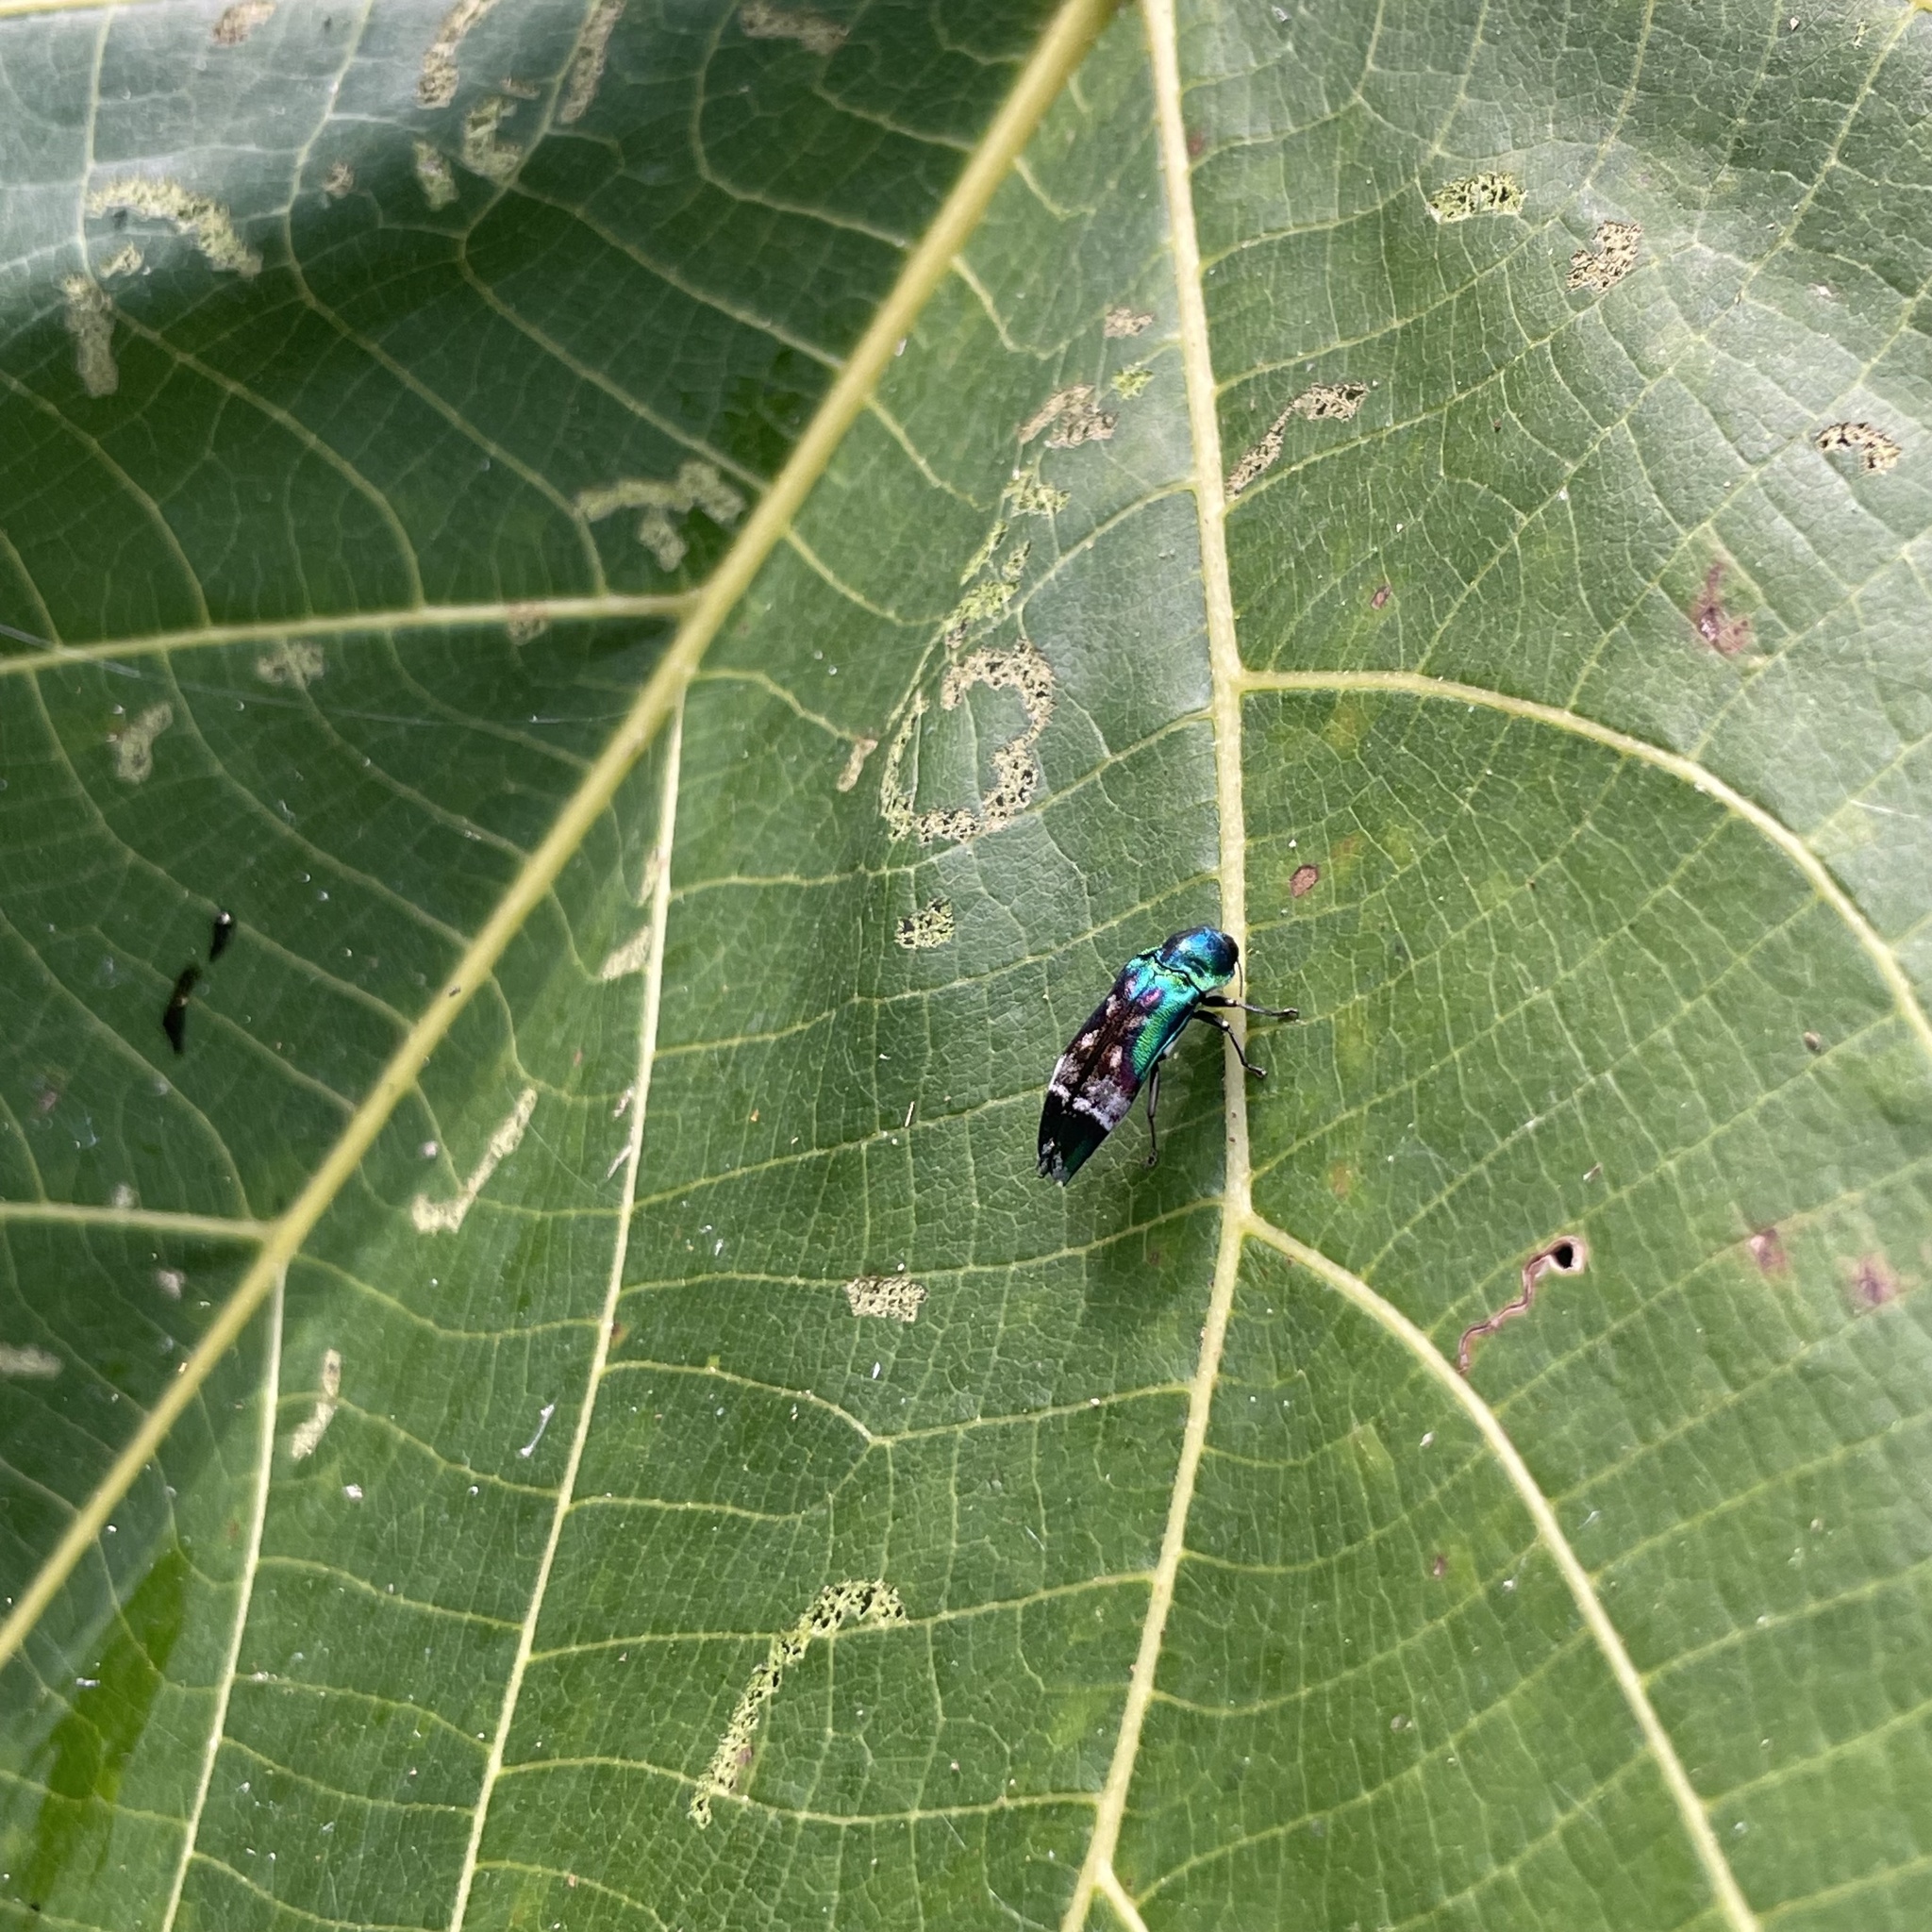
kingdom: Animalia
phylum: Arthropoda
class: Insecta
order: Coleoptera
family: Buprestidae
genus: Coraebus
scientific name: Coraebus hastanus
